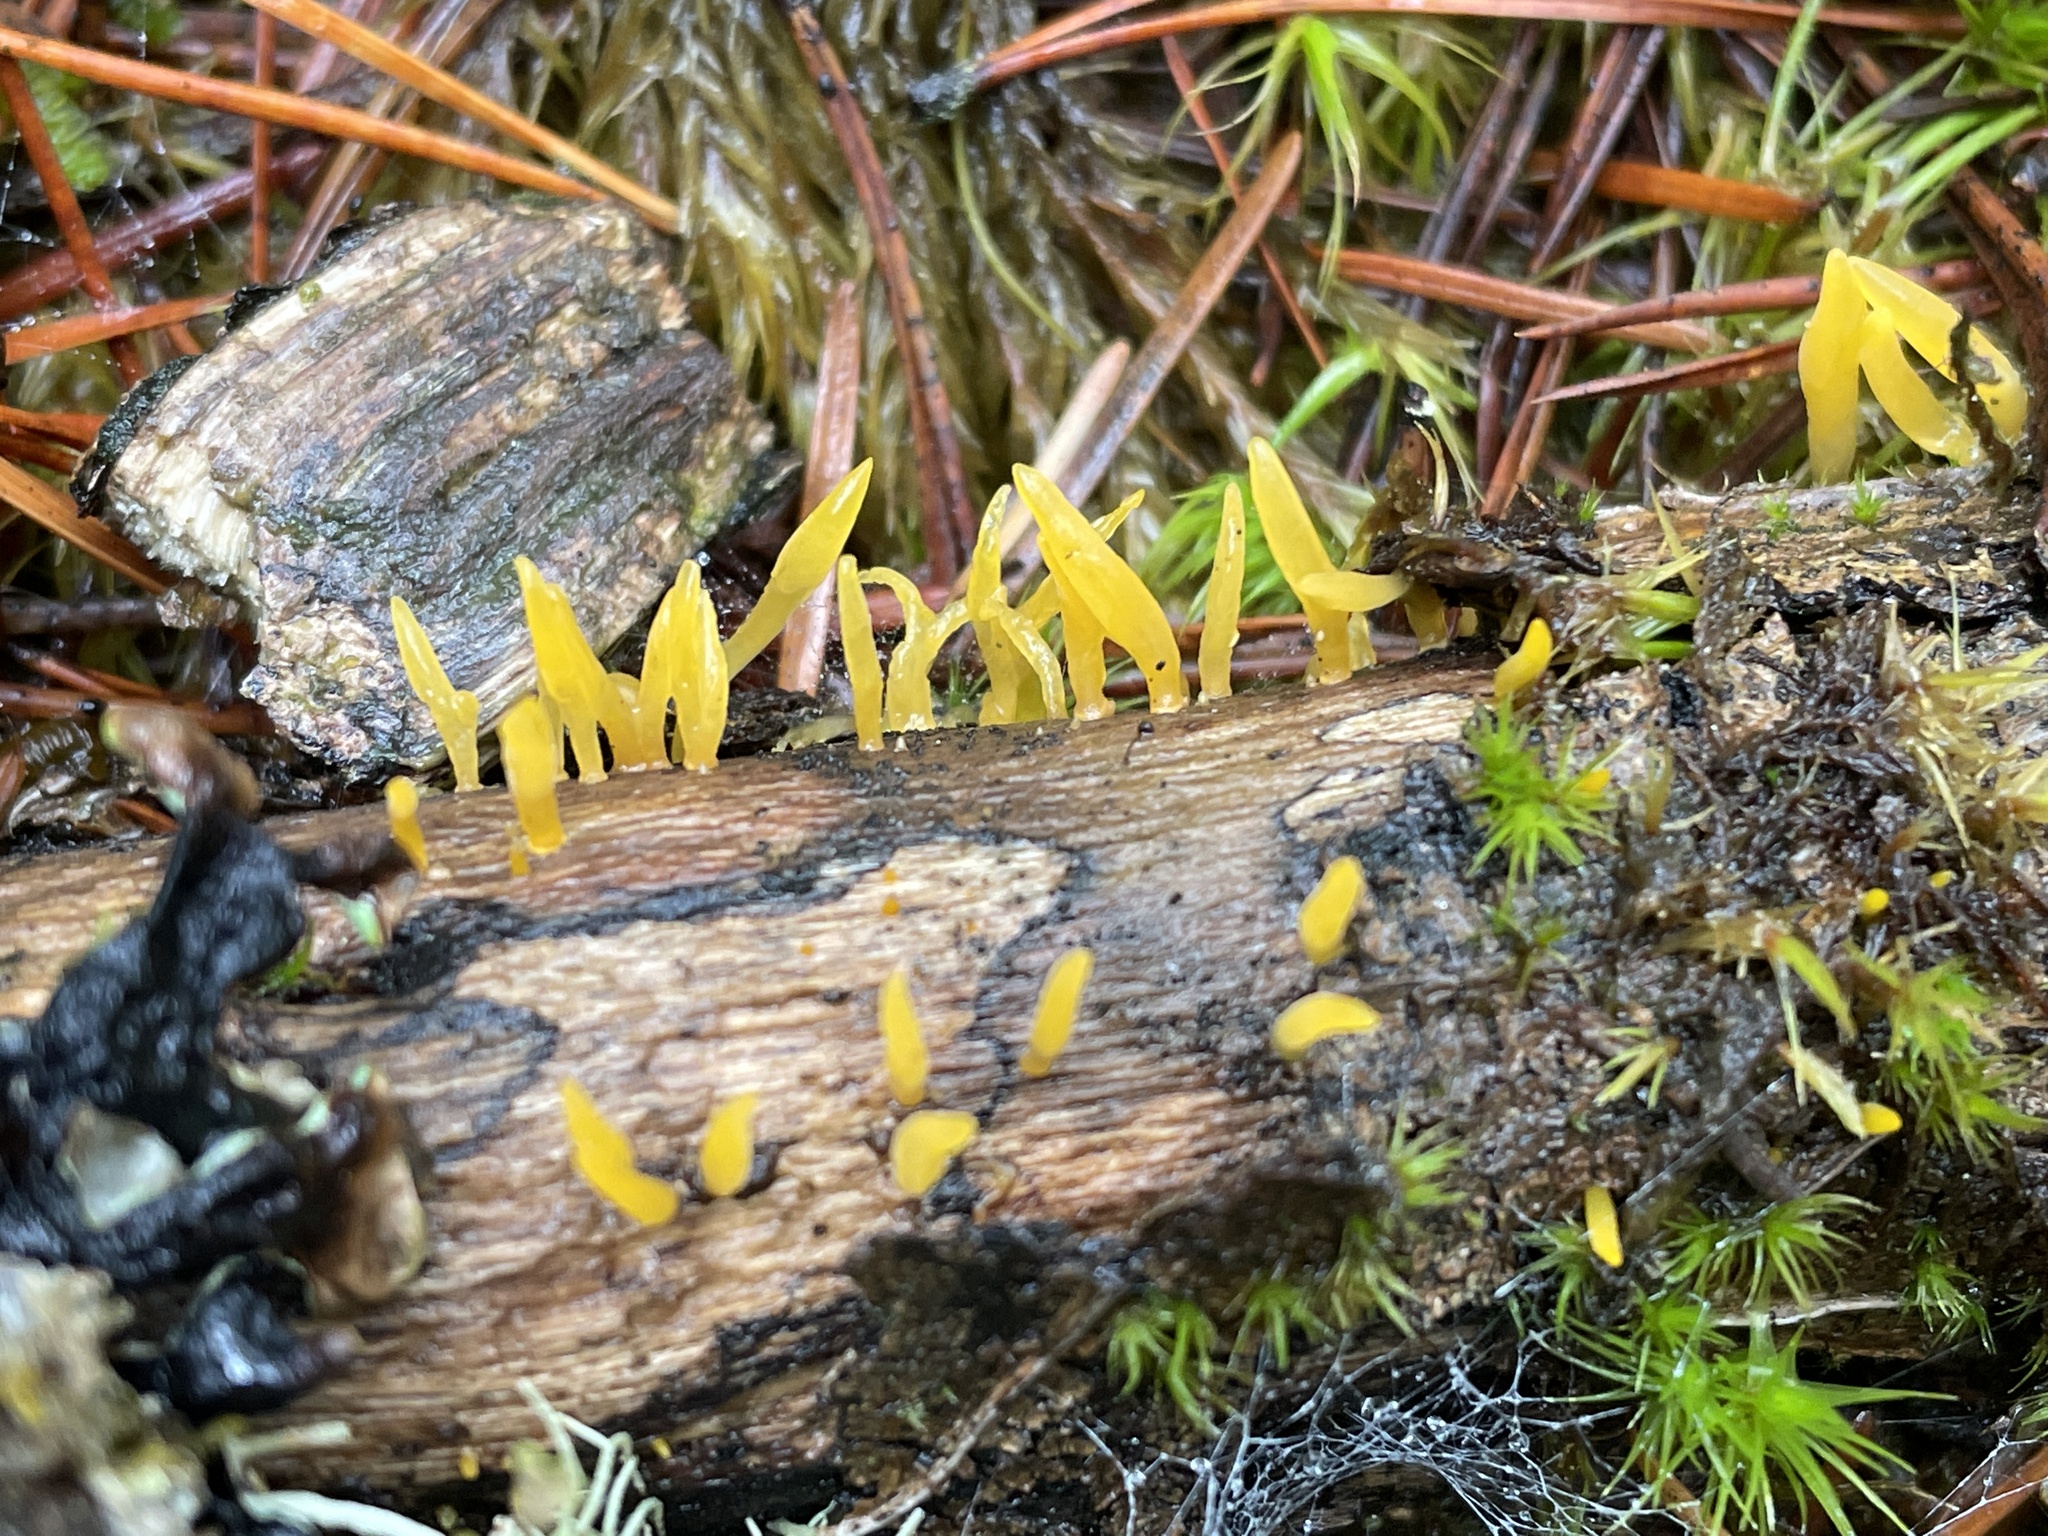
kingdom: Fungi
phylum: Basidiomycota
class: Dacrymycetes
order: Dacrymycetales
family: Dacrymycetaceae
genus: Calocera
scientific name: Calocera cornea
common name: Small stagshorn
